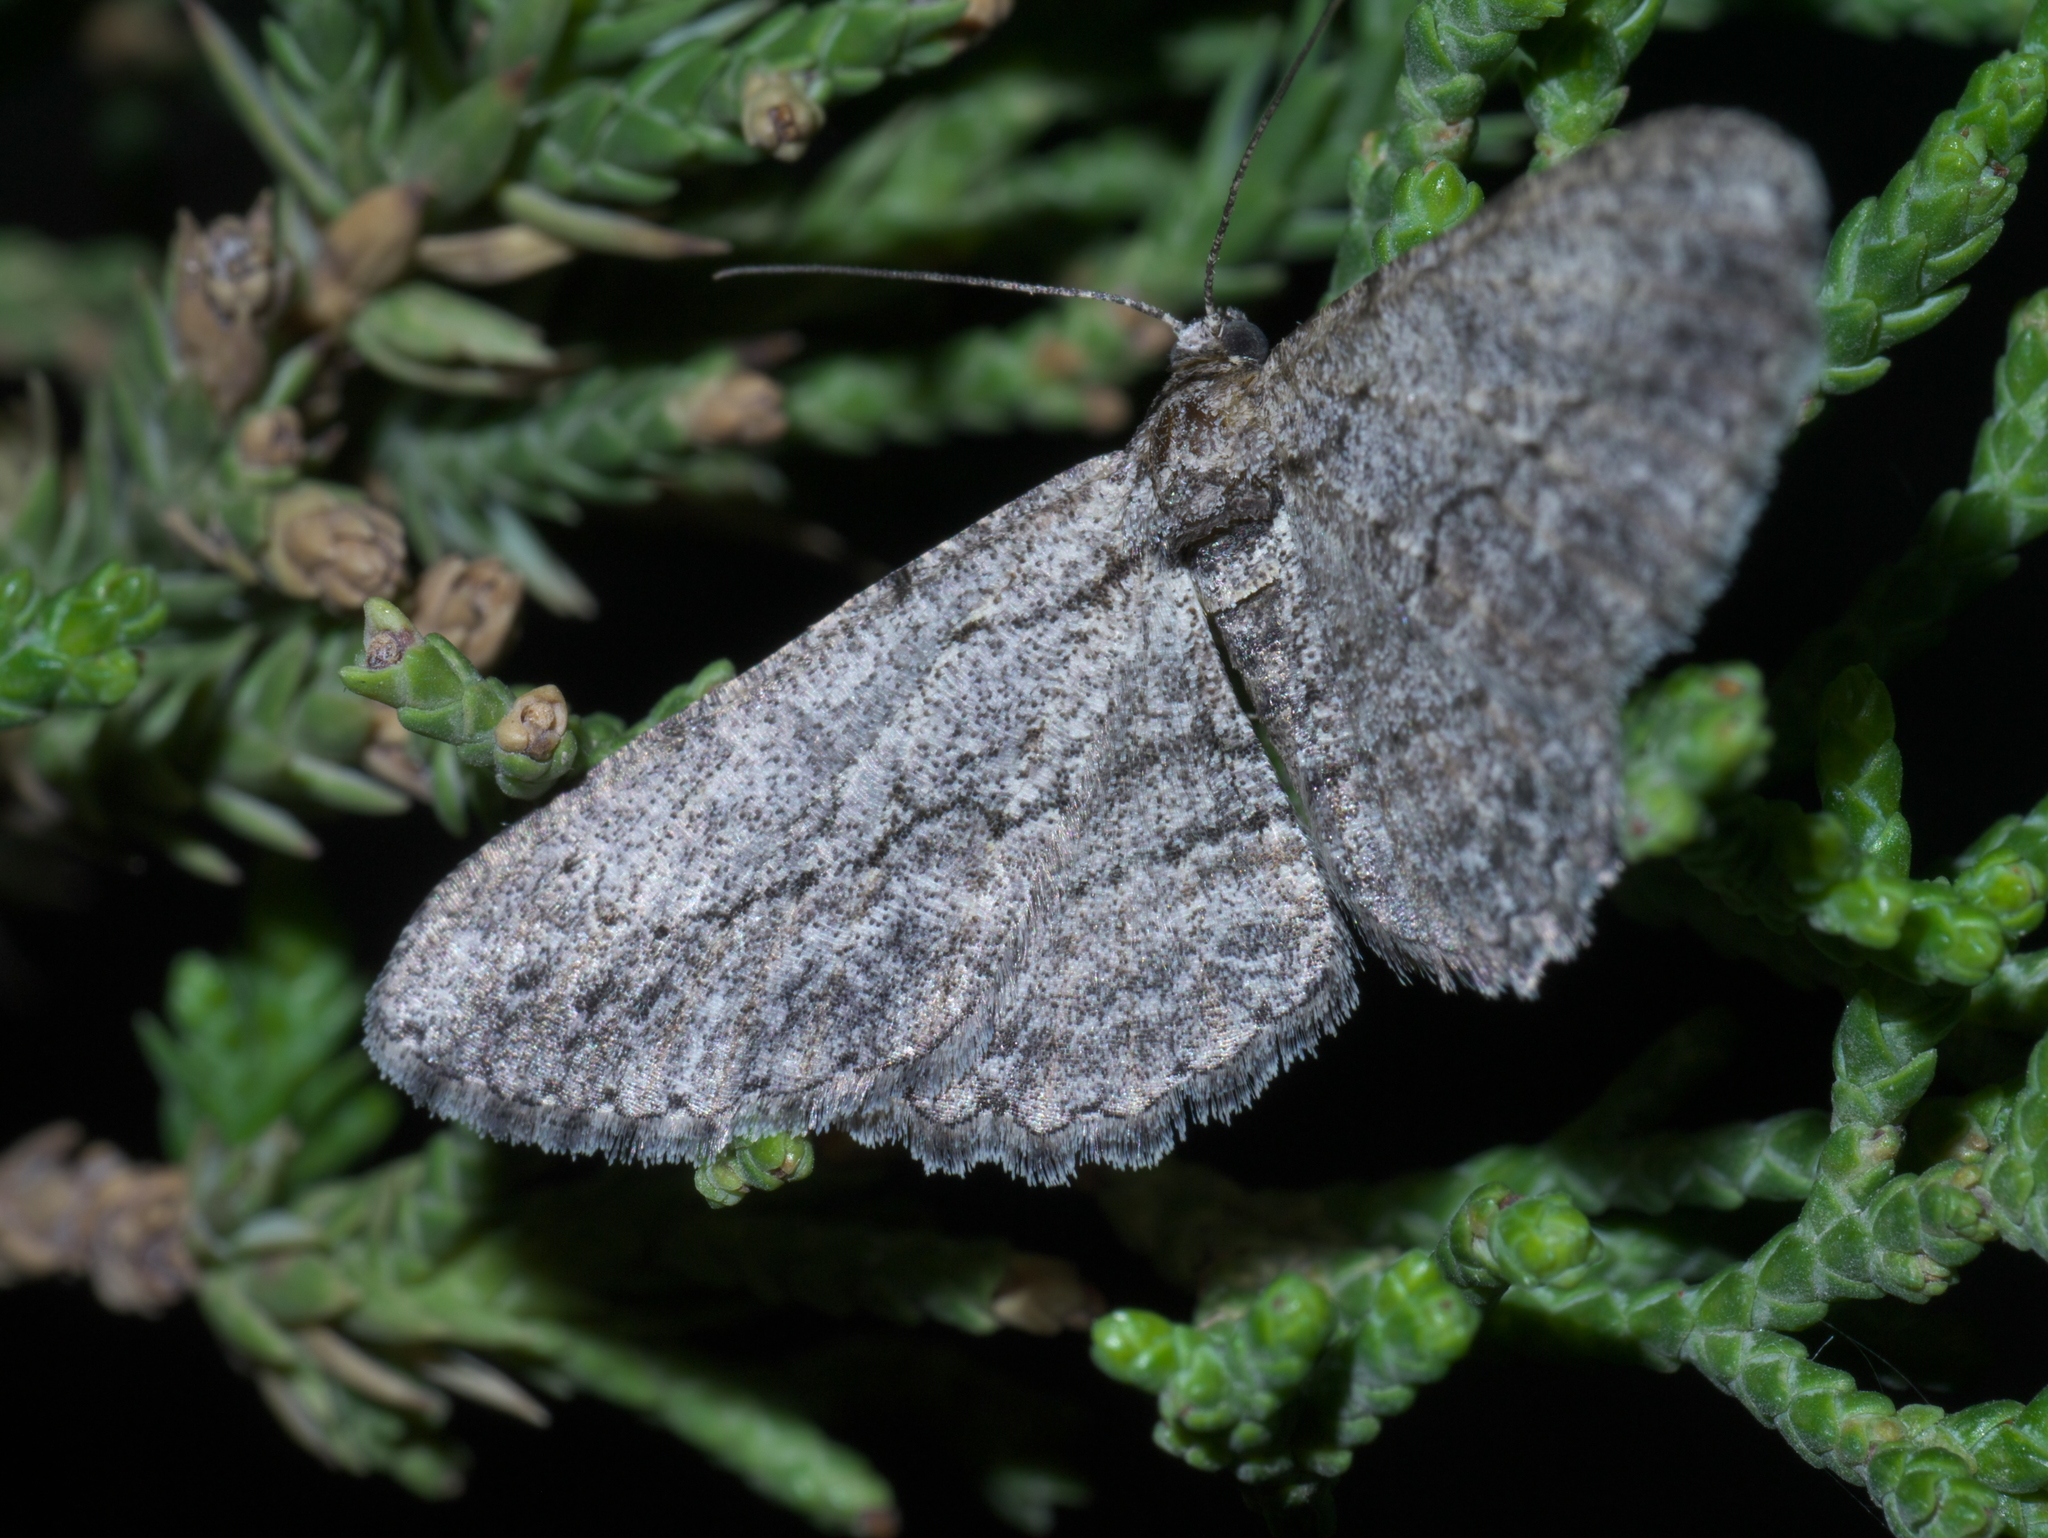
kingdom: Animalia
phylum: Arthropoda
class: Insecta
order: Lepidoptera
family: Geometridae
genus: Anavitrinella
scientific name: Anavitrinella pampinaria
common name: Common gray
